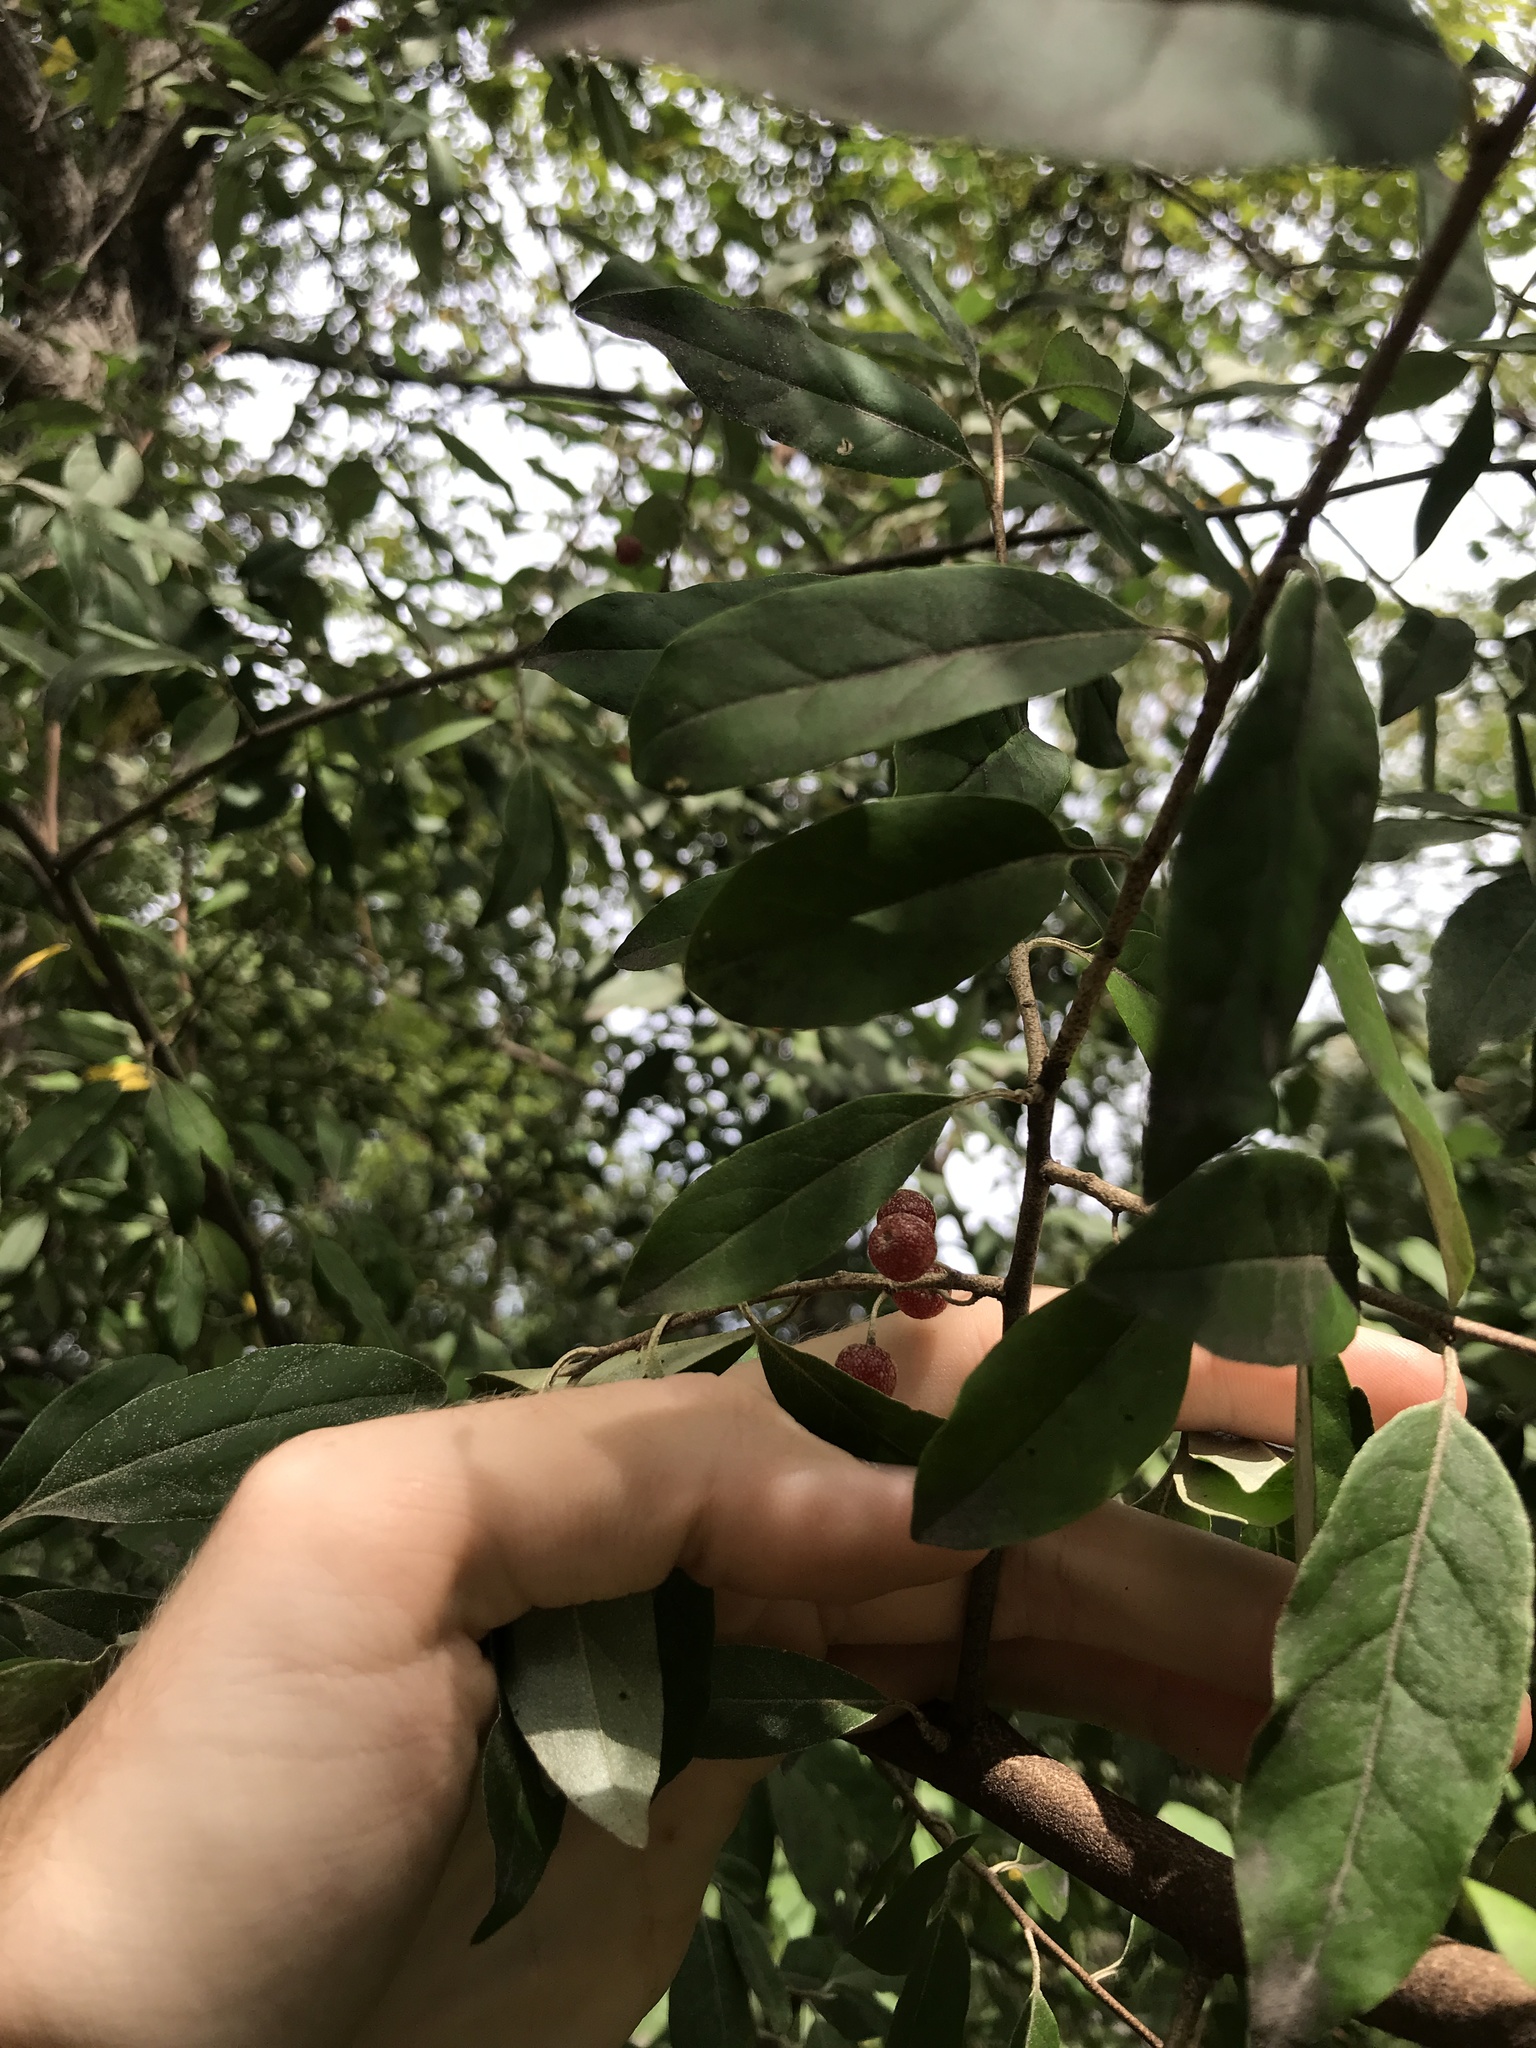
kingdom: Plantae
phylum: Tracheophyta
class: Magnoliopsida
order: Rosales
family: Elaeagnaceae
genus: Elaeagnus
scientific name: Elaeagnus umbellata
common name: Autumn olive
